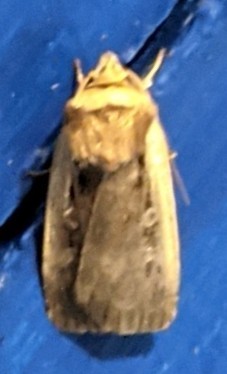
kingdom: Animalia
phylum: Arthropoda
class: Insecta
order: Lepidoptera
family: Noctuidae
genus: Ochropleura
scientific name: Ochropleura implecta
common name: Flame-shouldered dart
